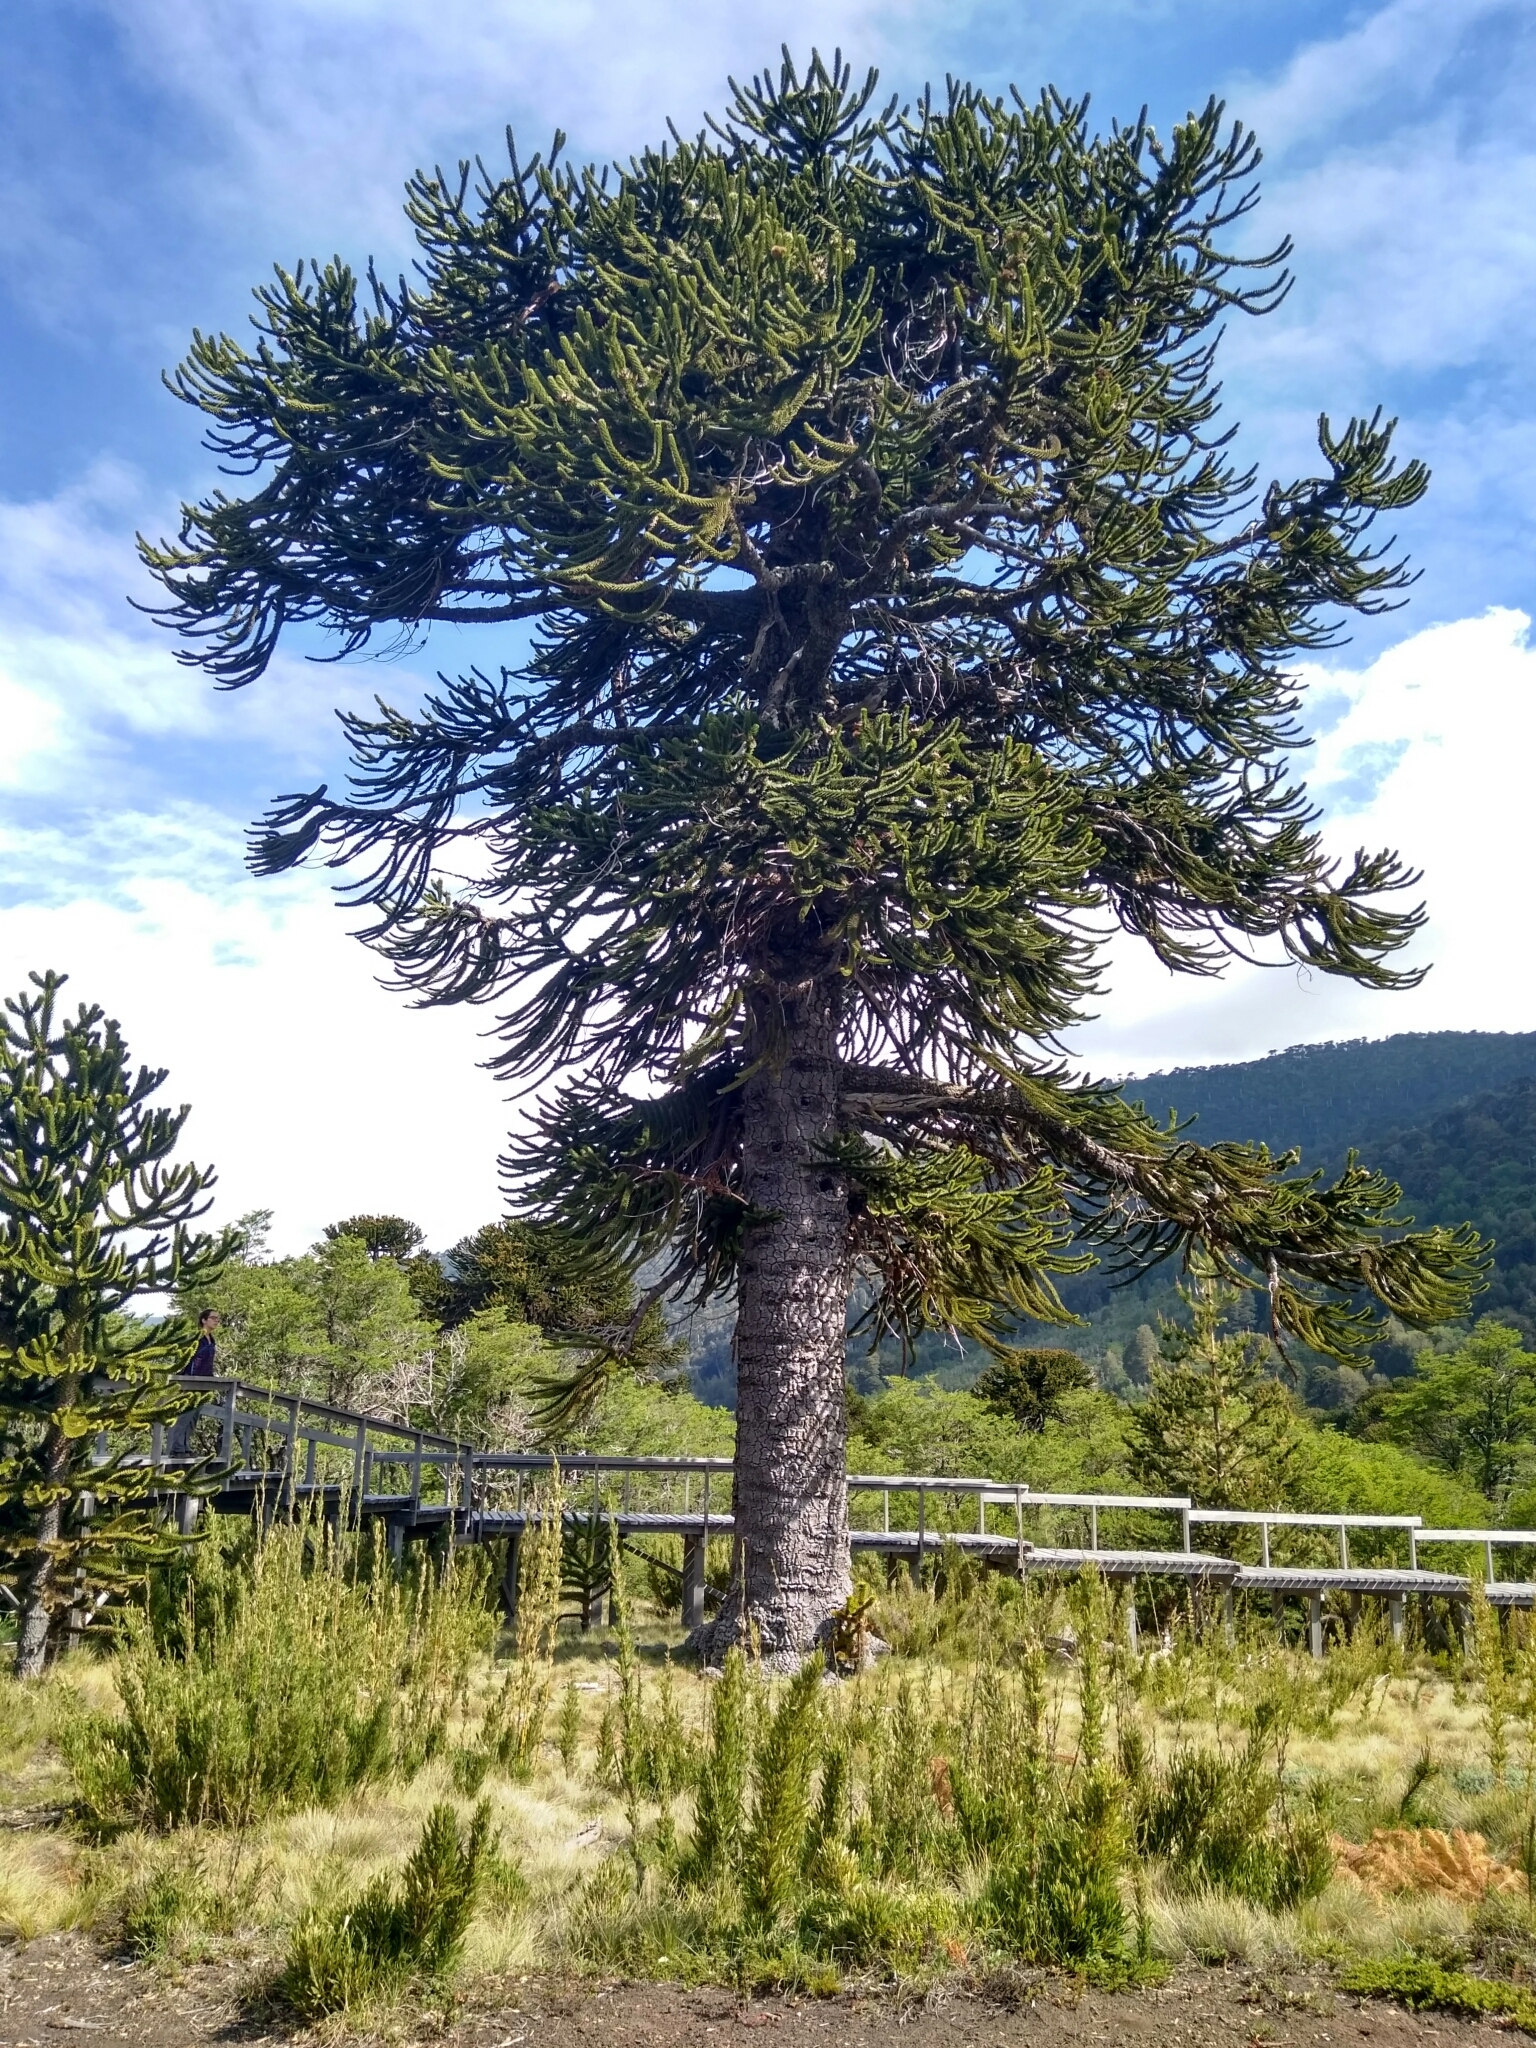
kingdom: Plantae
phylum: Tracheophyta
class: Pinopsida
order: Pinales
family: Araucariaceae
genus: Araucaria
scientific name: Araucaria araucana
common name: Monkey-puzzle
